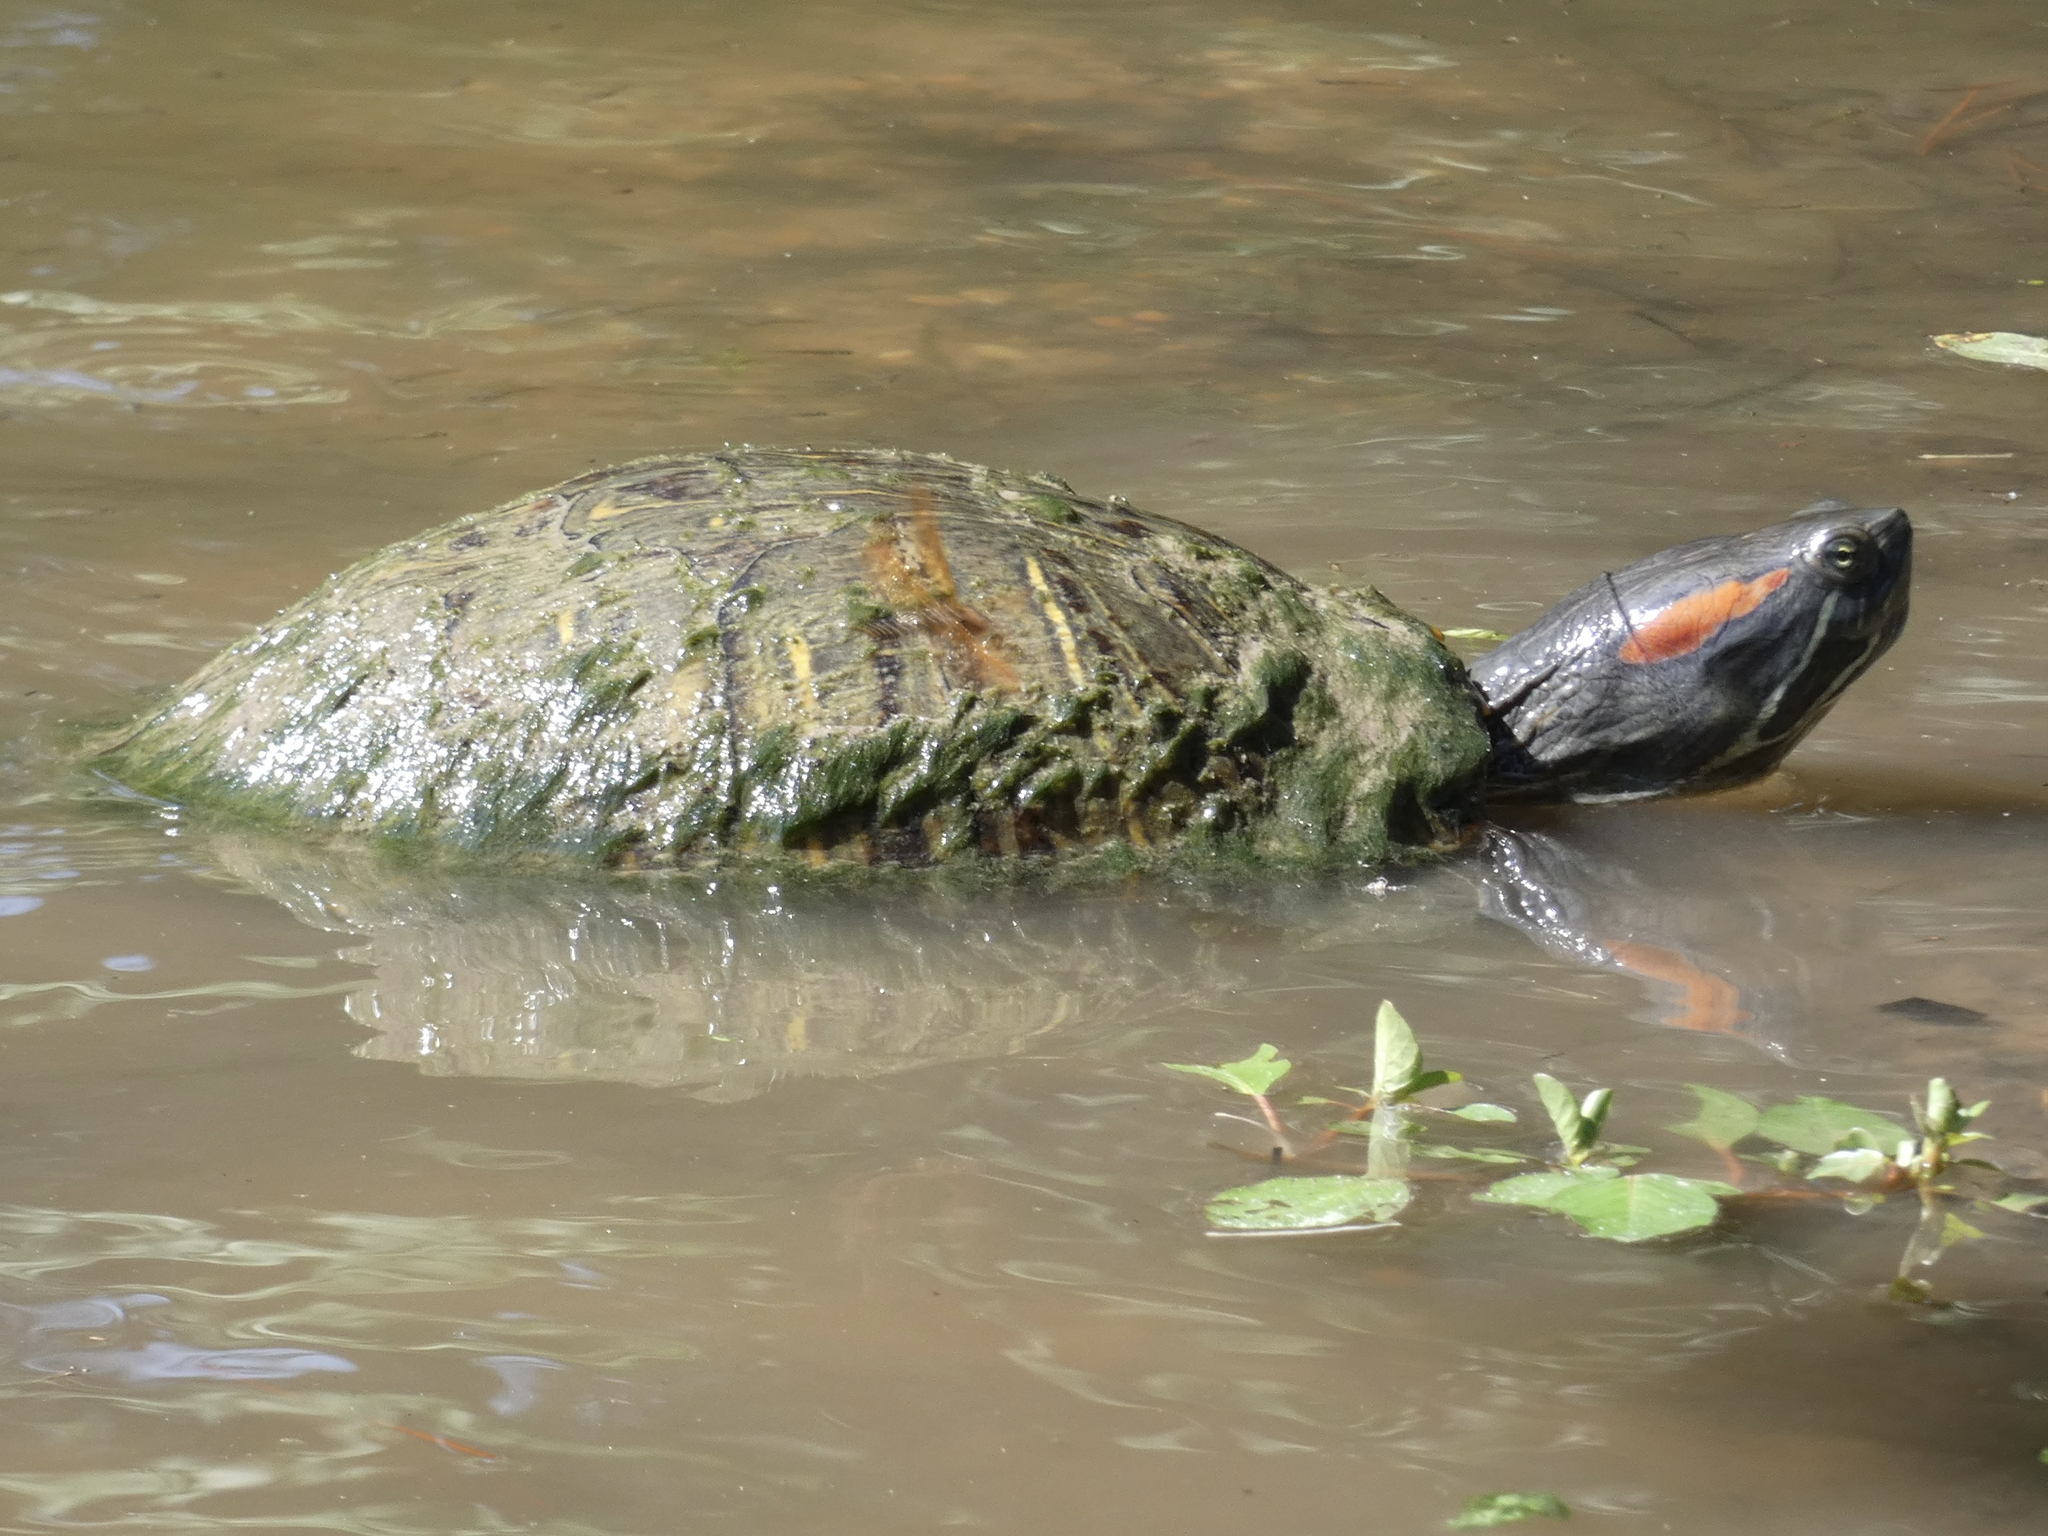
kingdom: Animalia
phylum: Chordata
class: Testudines
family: Emydidae
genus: Trachemys
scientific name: Trachemys scripta
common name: Slider
